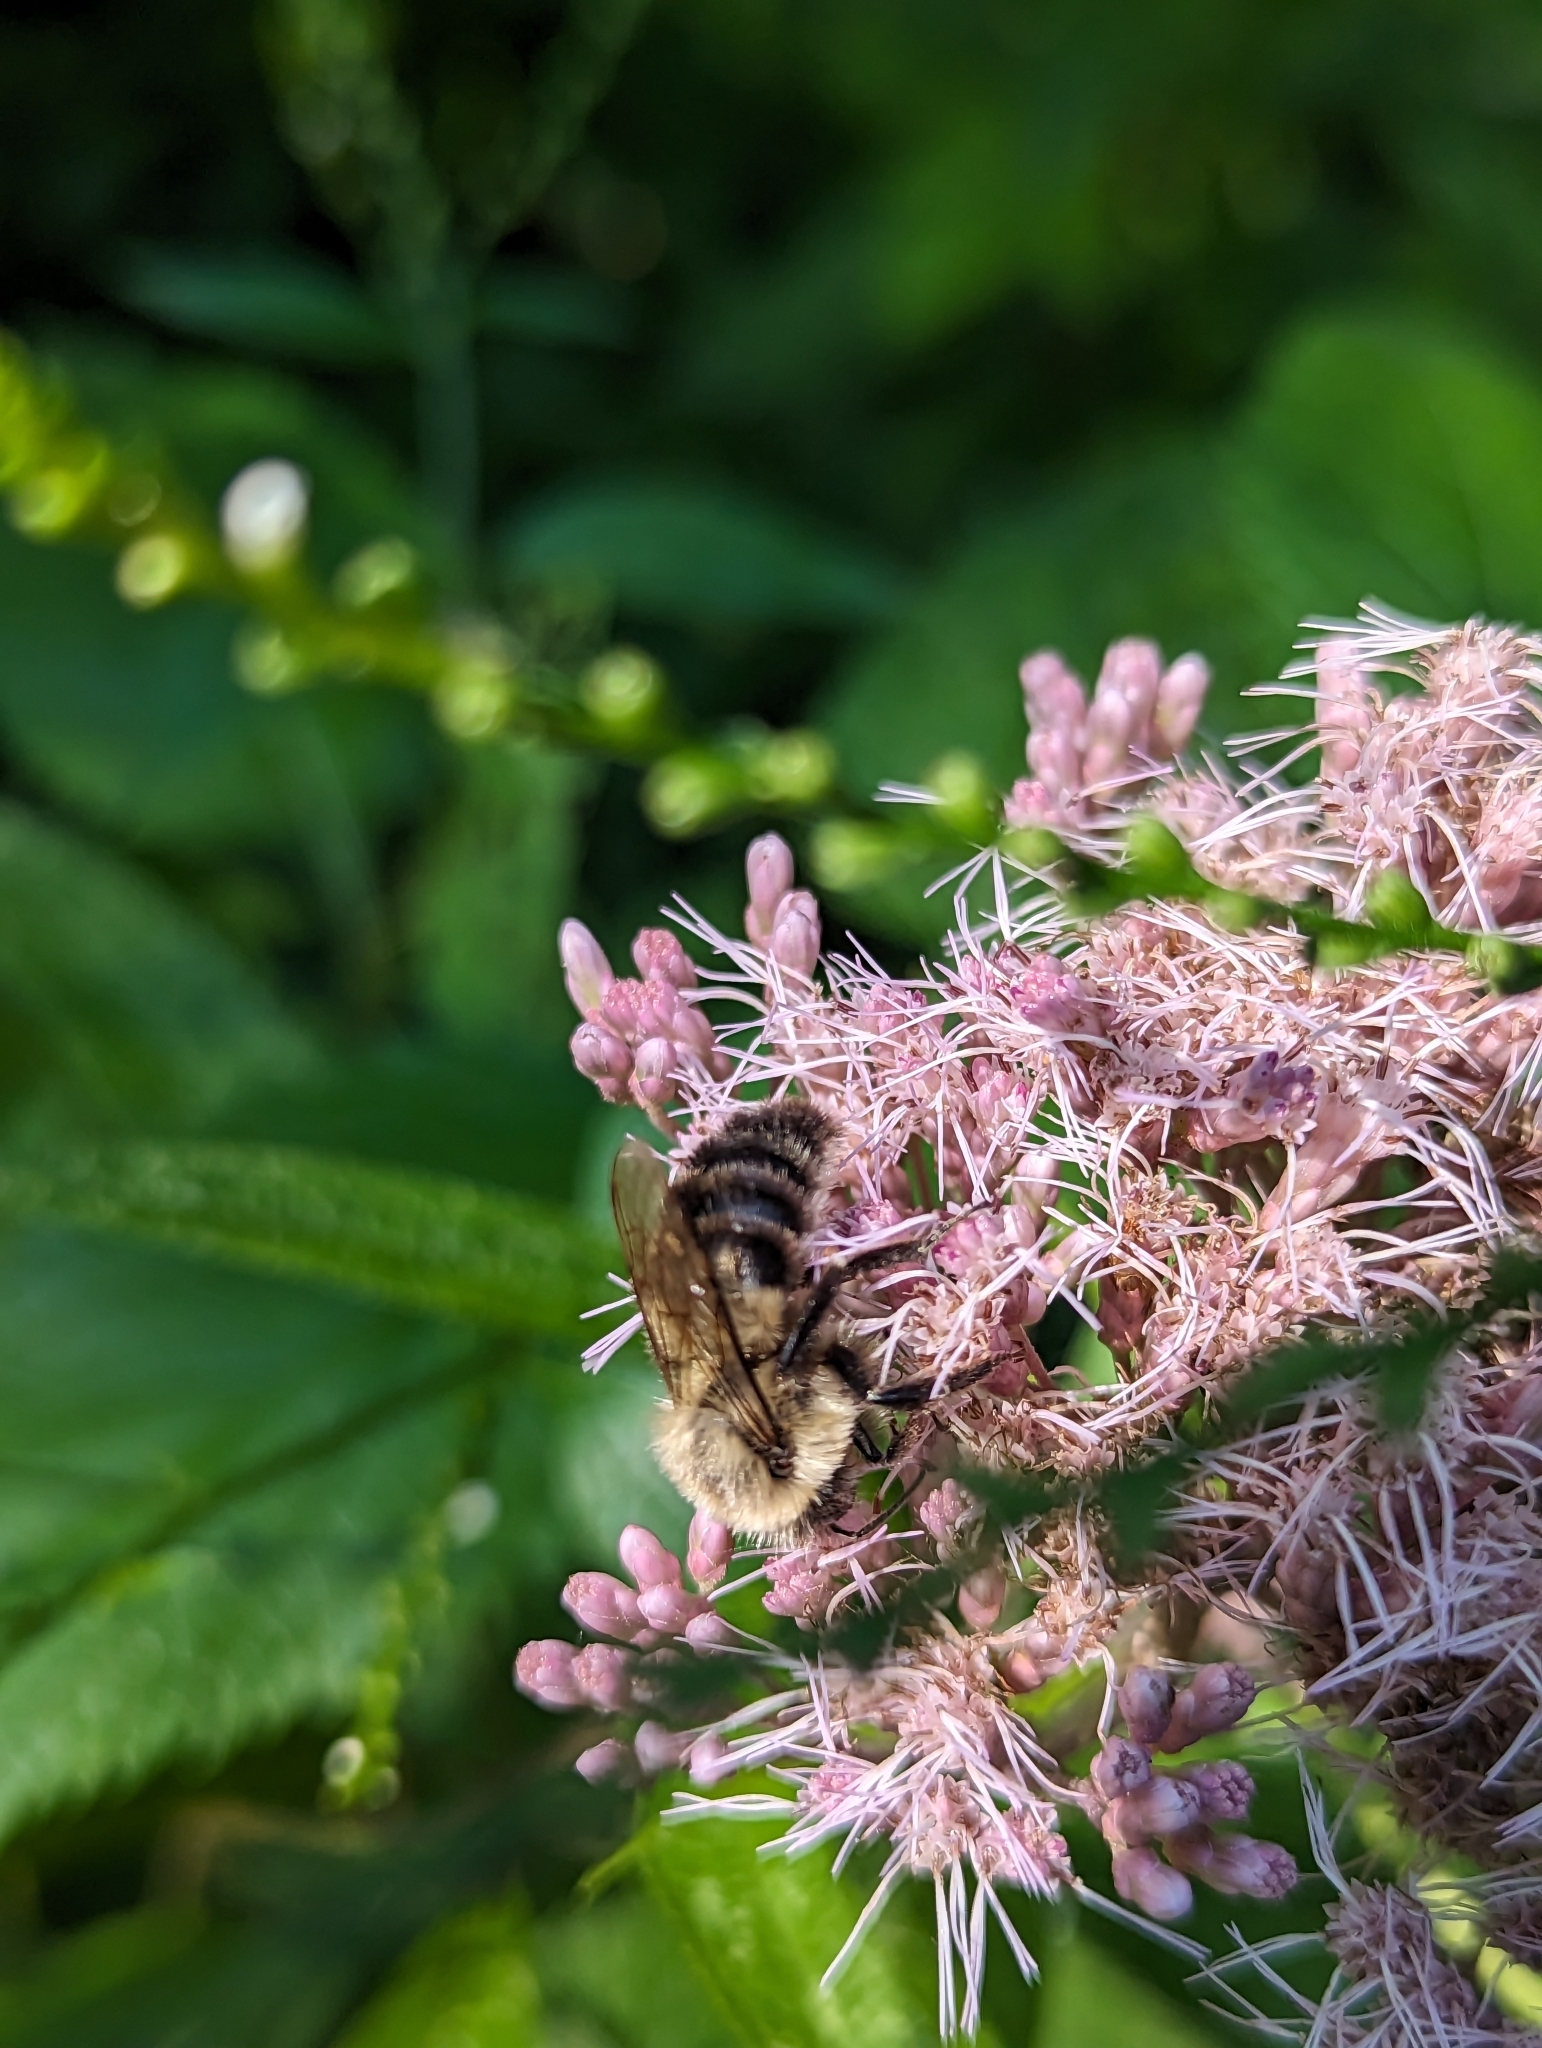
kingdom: Animalia
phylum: Arthropoda
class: Insecta
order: Hymenoptera
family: Apidae
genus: Bombus
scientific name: Bombus impatiens
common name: Common eastern bumble bee
